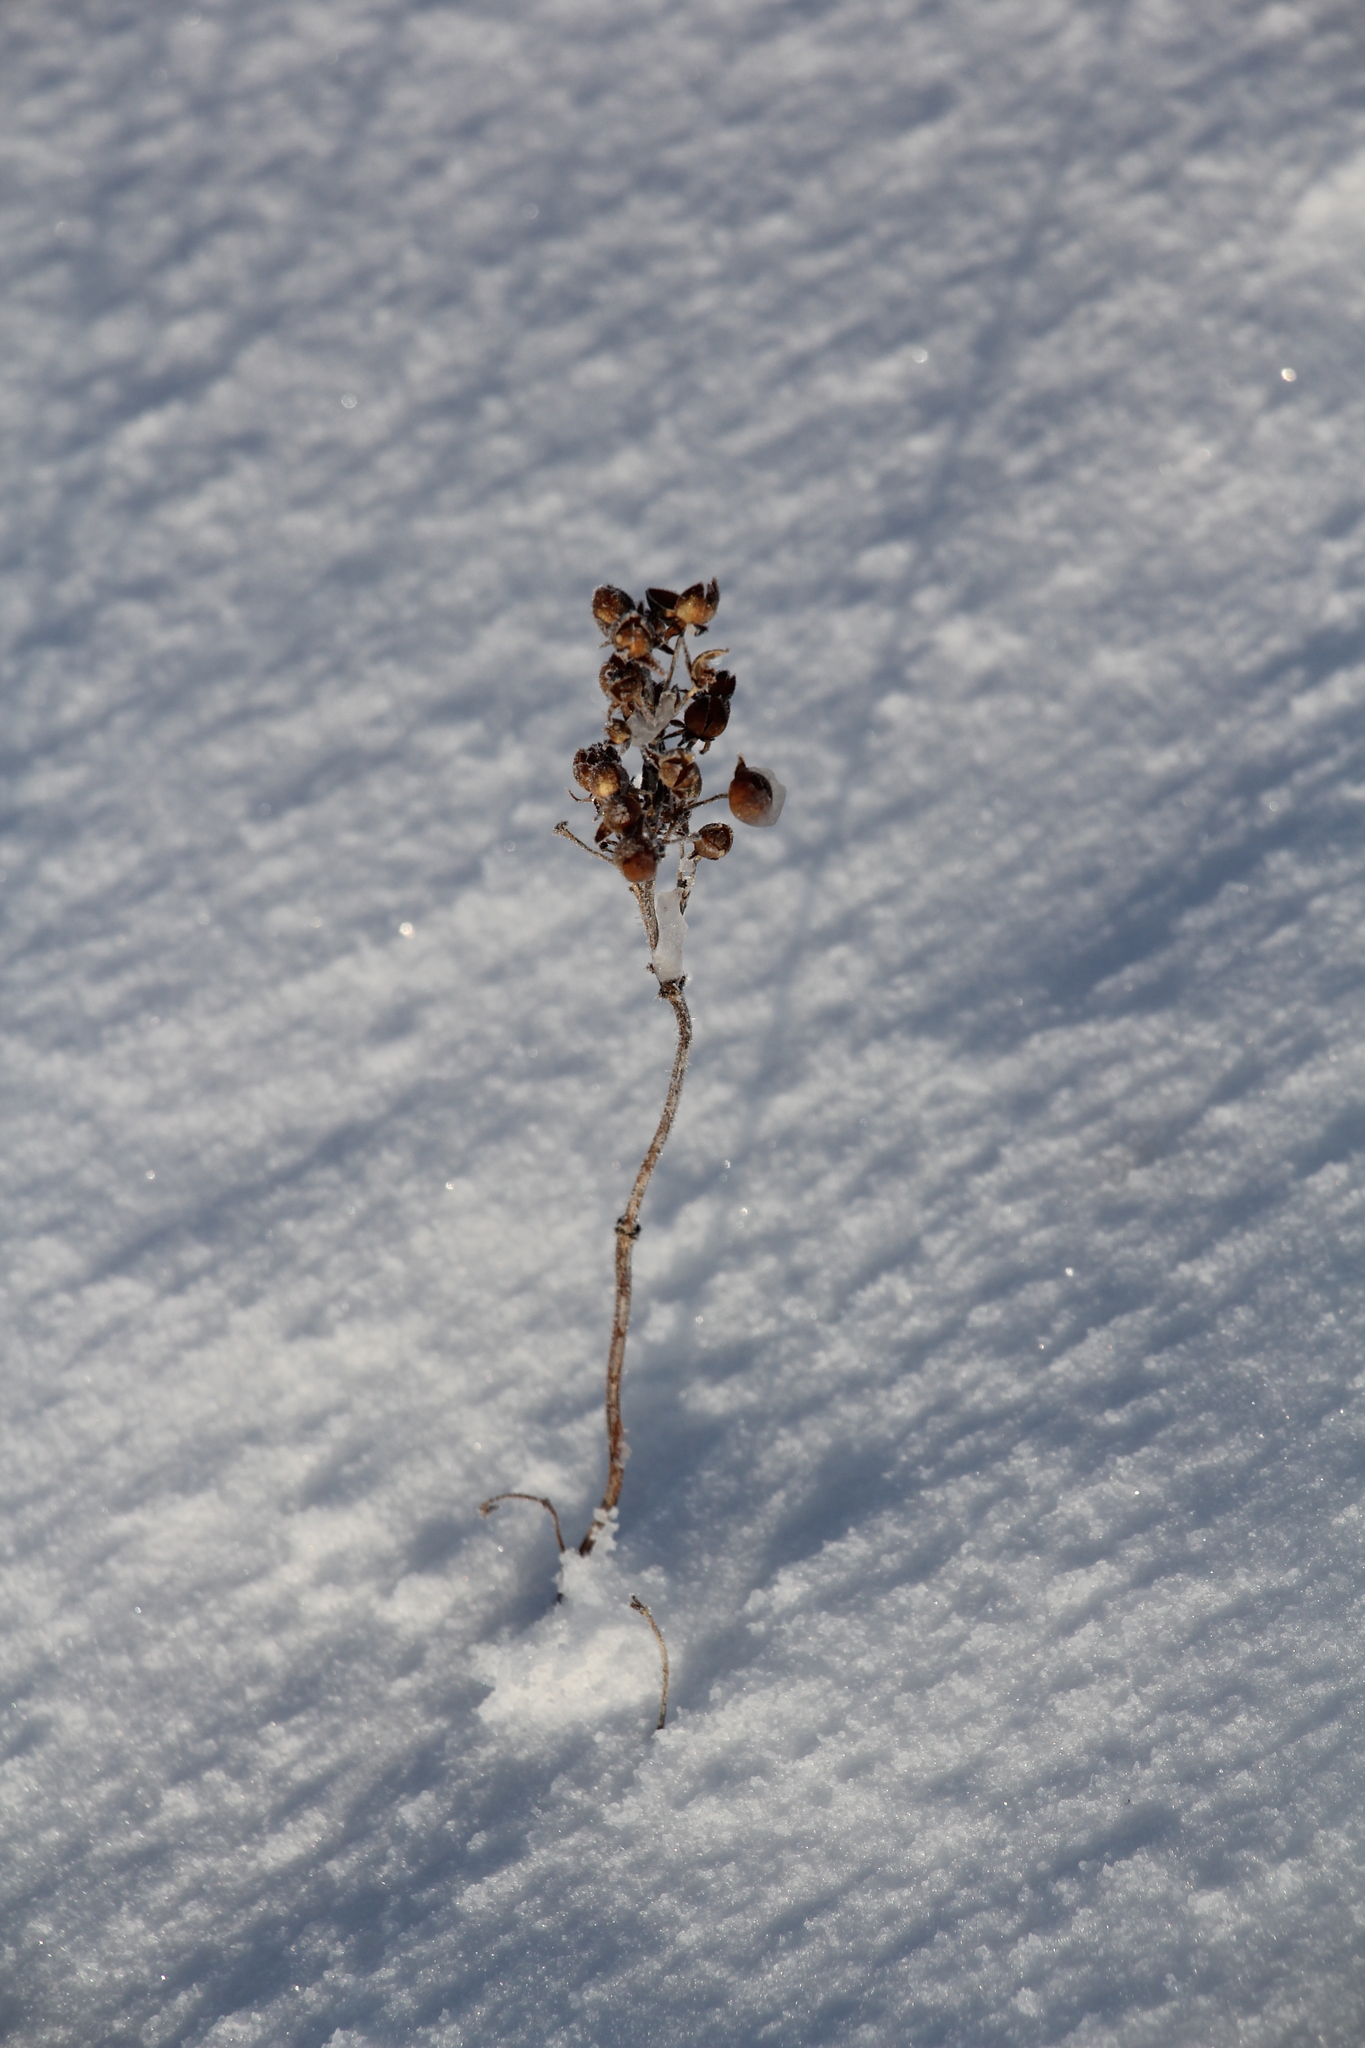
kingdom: Plantae
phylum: Tracheophyta
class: Magnoliopsida
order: Ericales
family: Primulaceae
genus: Lysimachia
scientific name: Lysimachia vulgaris
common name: Yellow loosestrife
